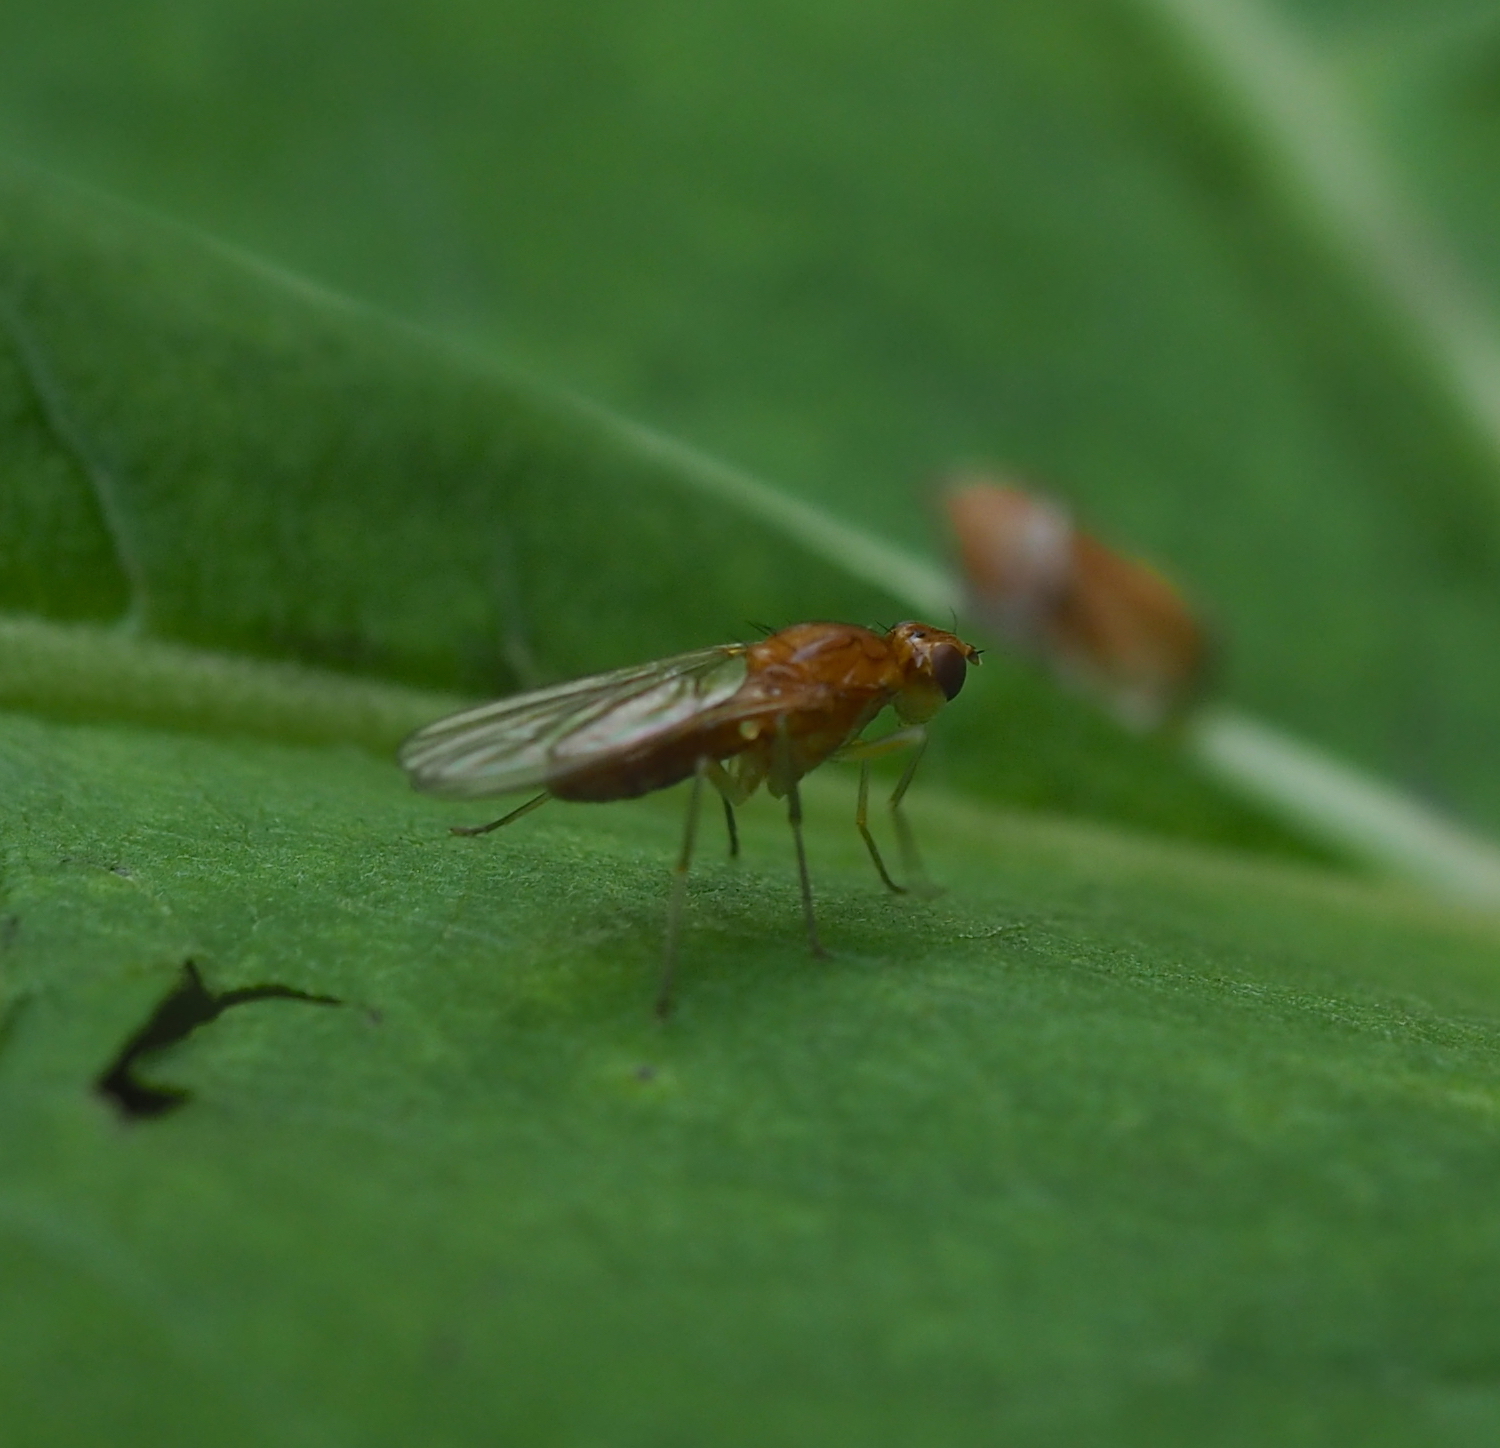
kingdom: Animalia
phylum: Arthropoda
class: Insecta
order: Diptera
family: Psilidae
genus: Psila
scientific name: Psila fimetaria
